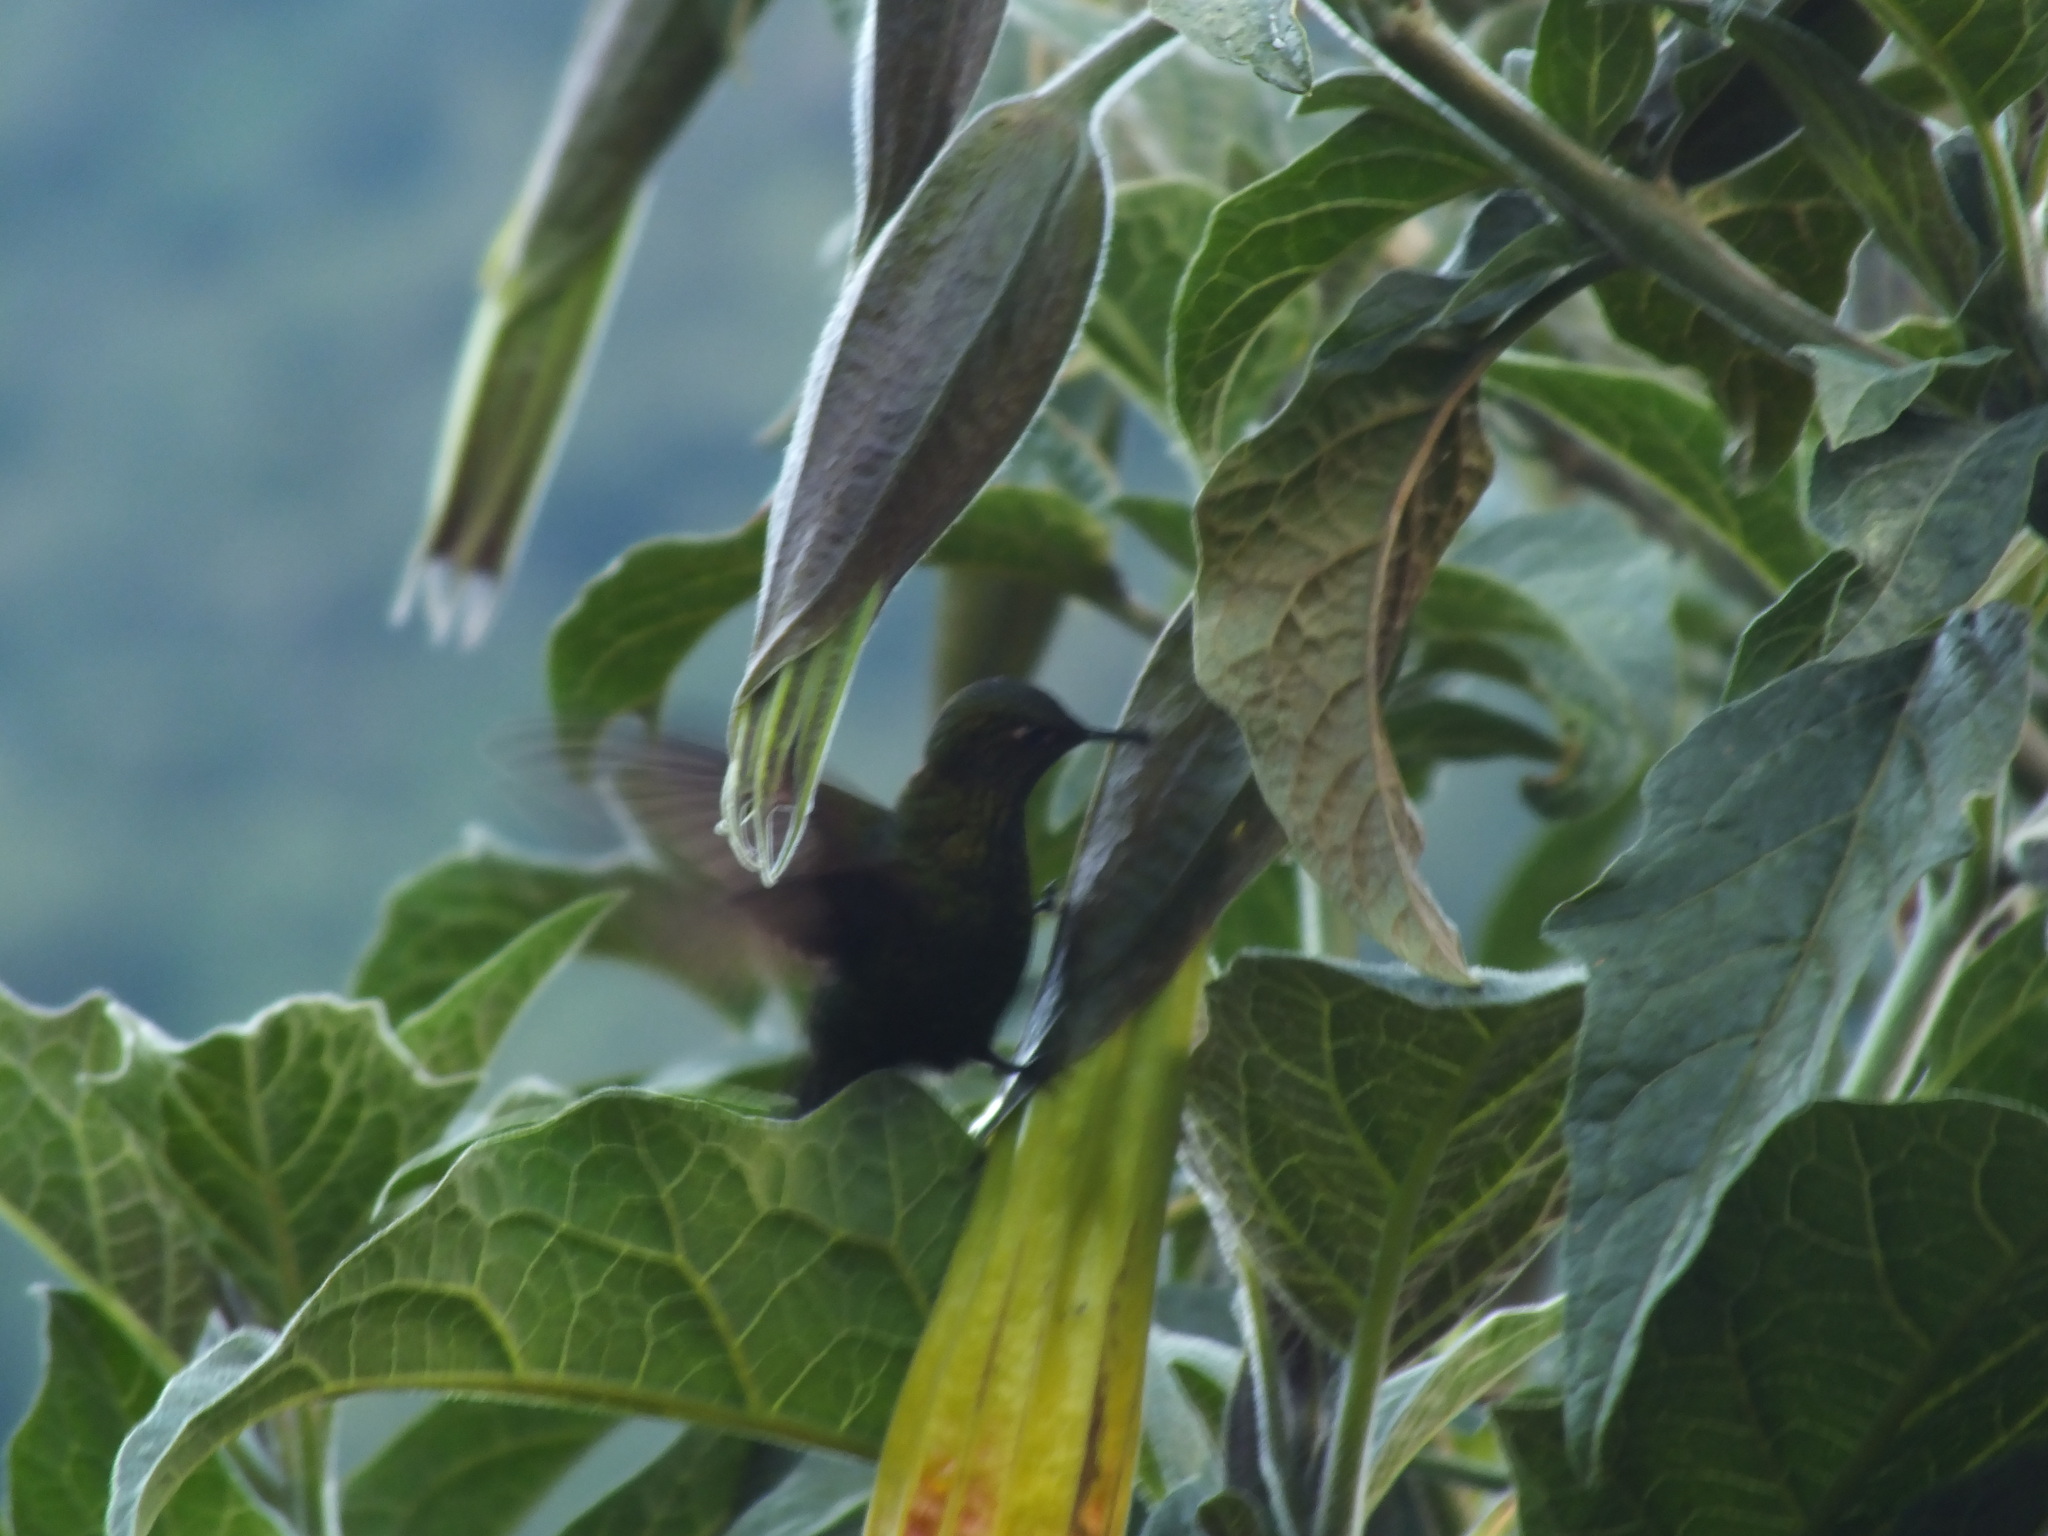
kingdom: Animalia
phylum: Chordata
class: Aves
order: Apodiformes
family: Trochilidae
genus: Opisthoprora
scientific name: Opisthoprora euryptera
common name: Mountain avocetbill
